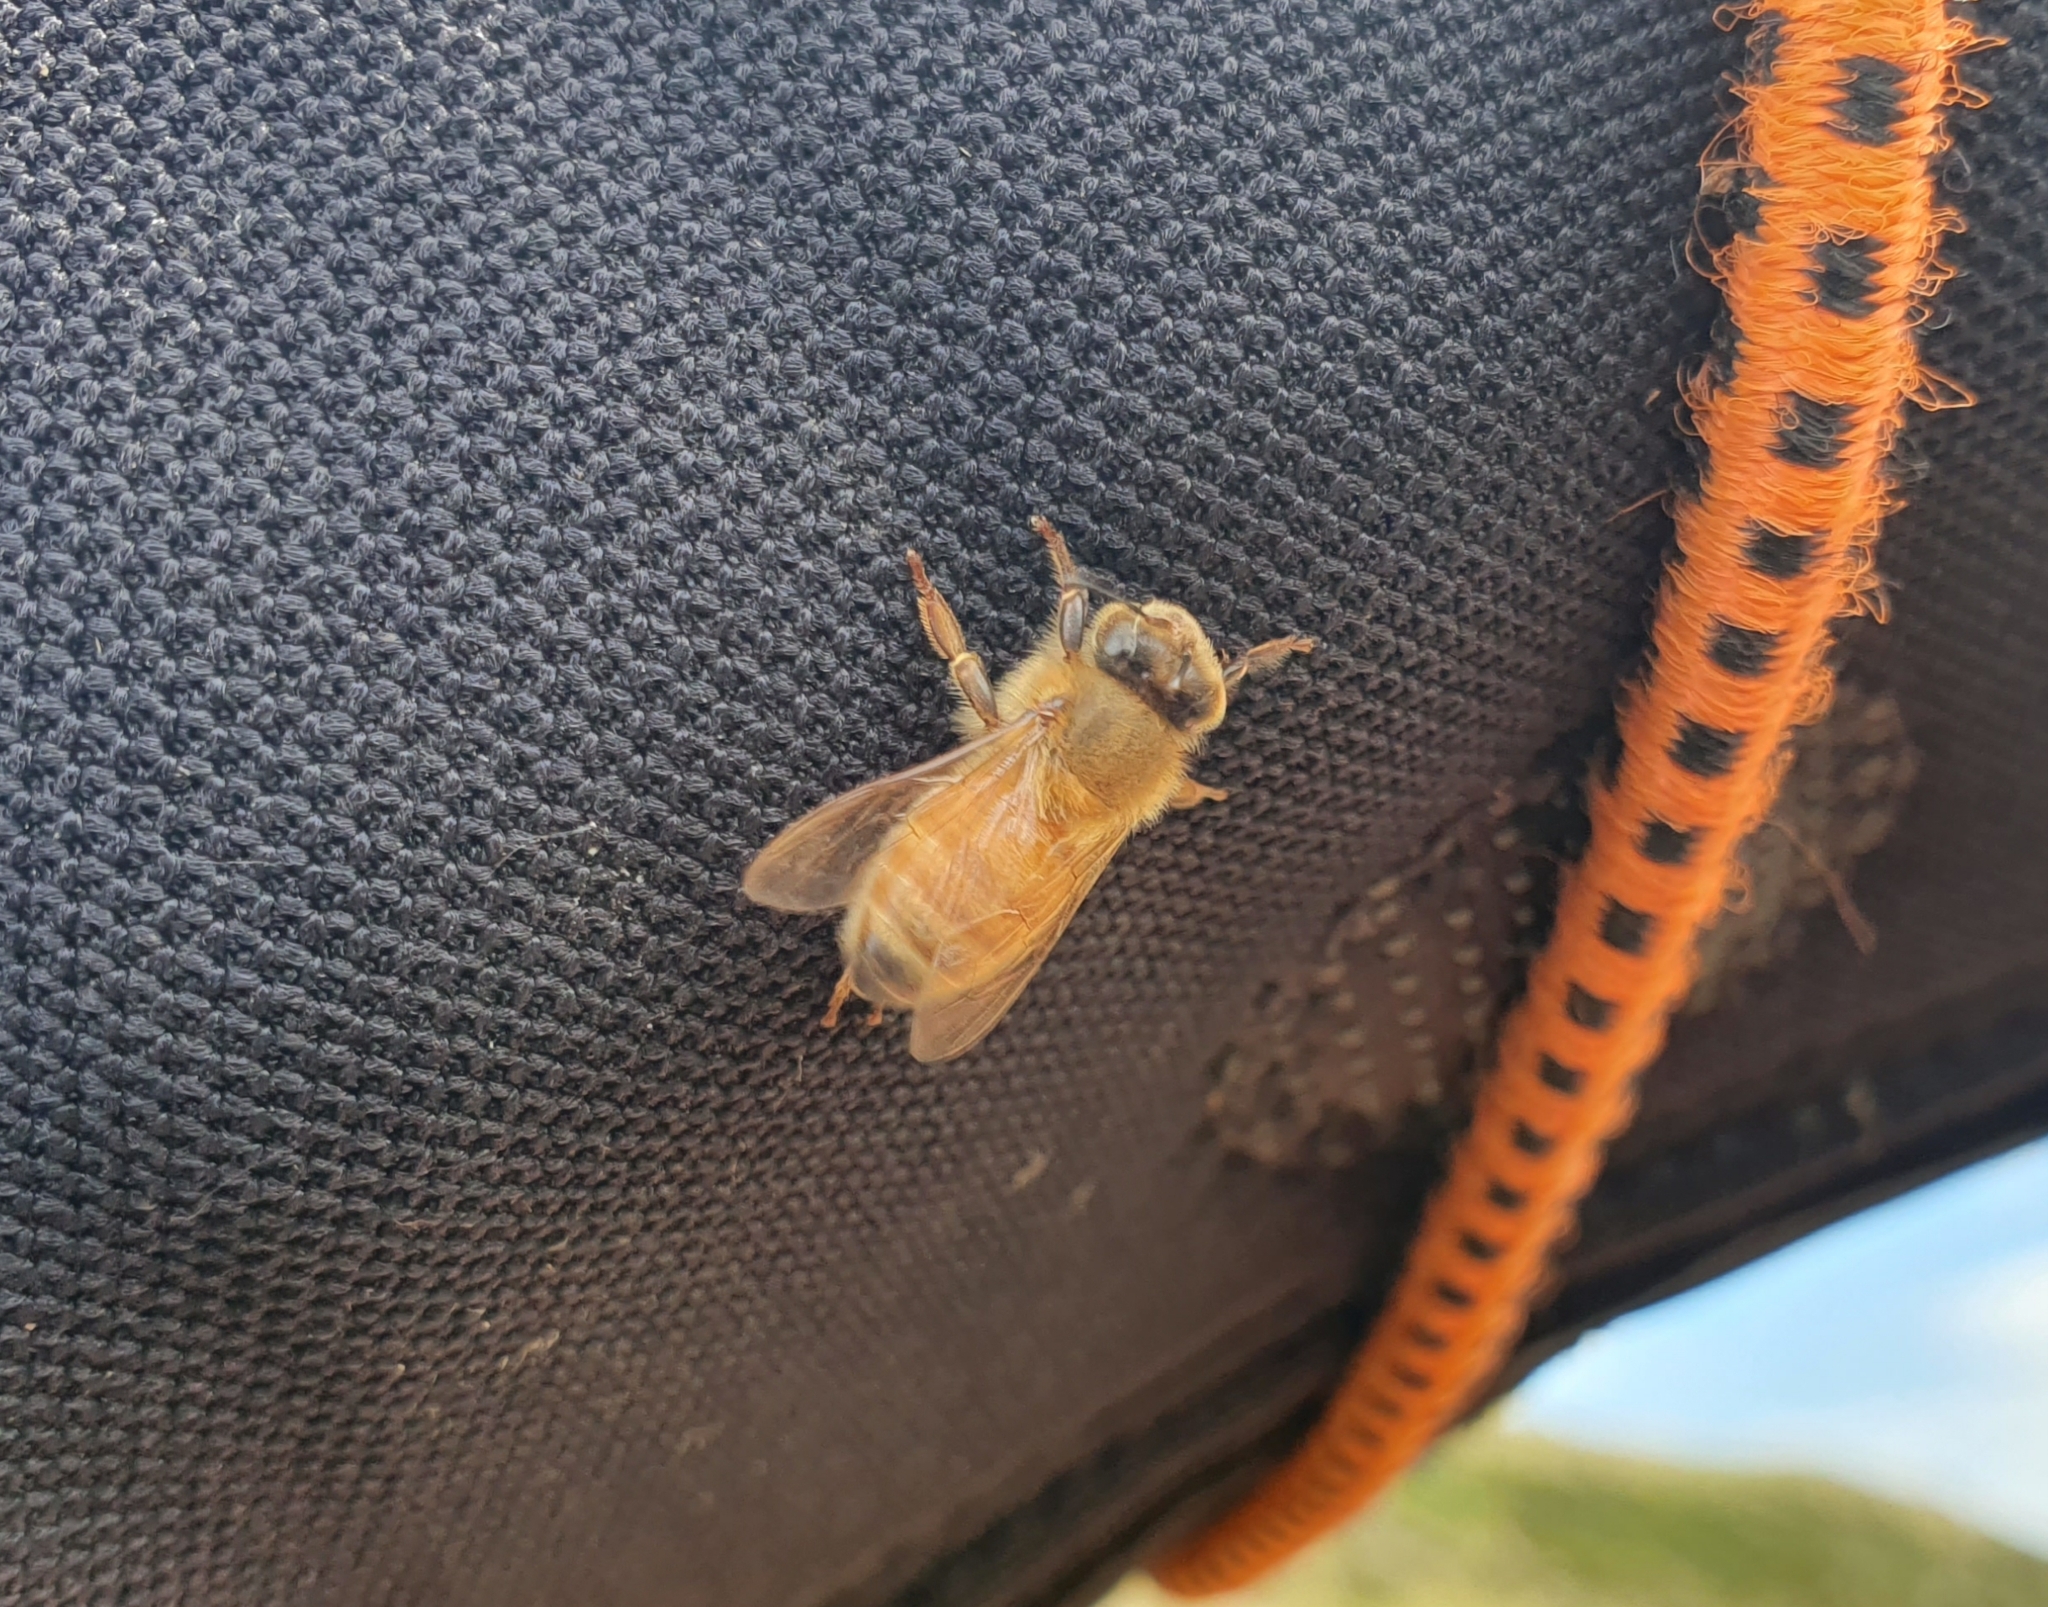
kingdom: Animalia
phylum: Arthropoda
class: Insecta
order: Hymenoptera
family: Apidae
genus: Apis
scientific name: Apis mellifera
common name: Honey bee
